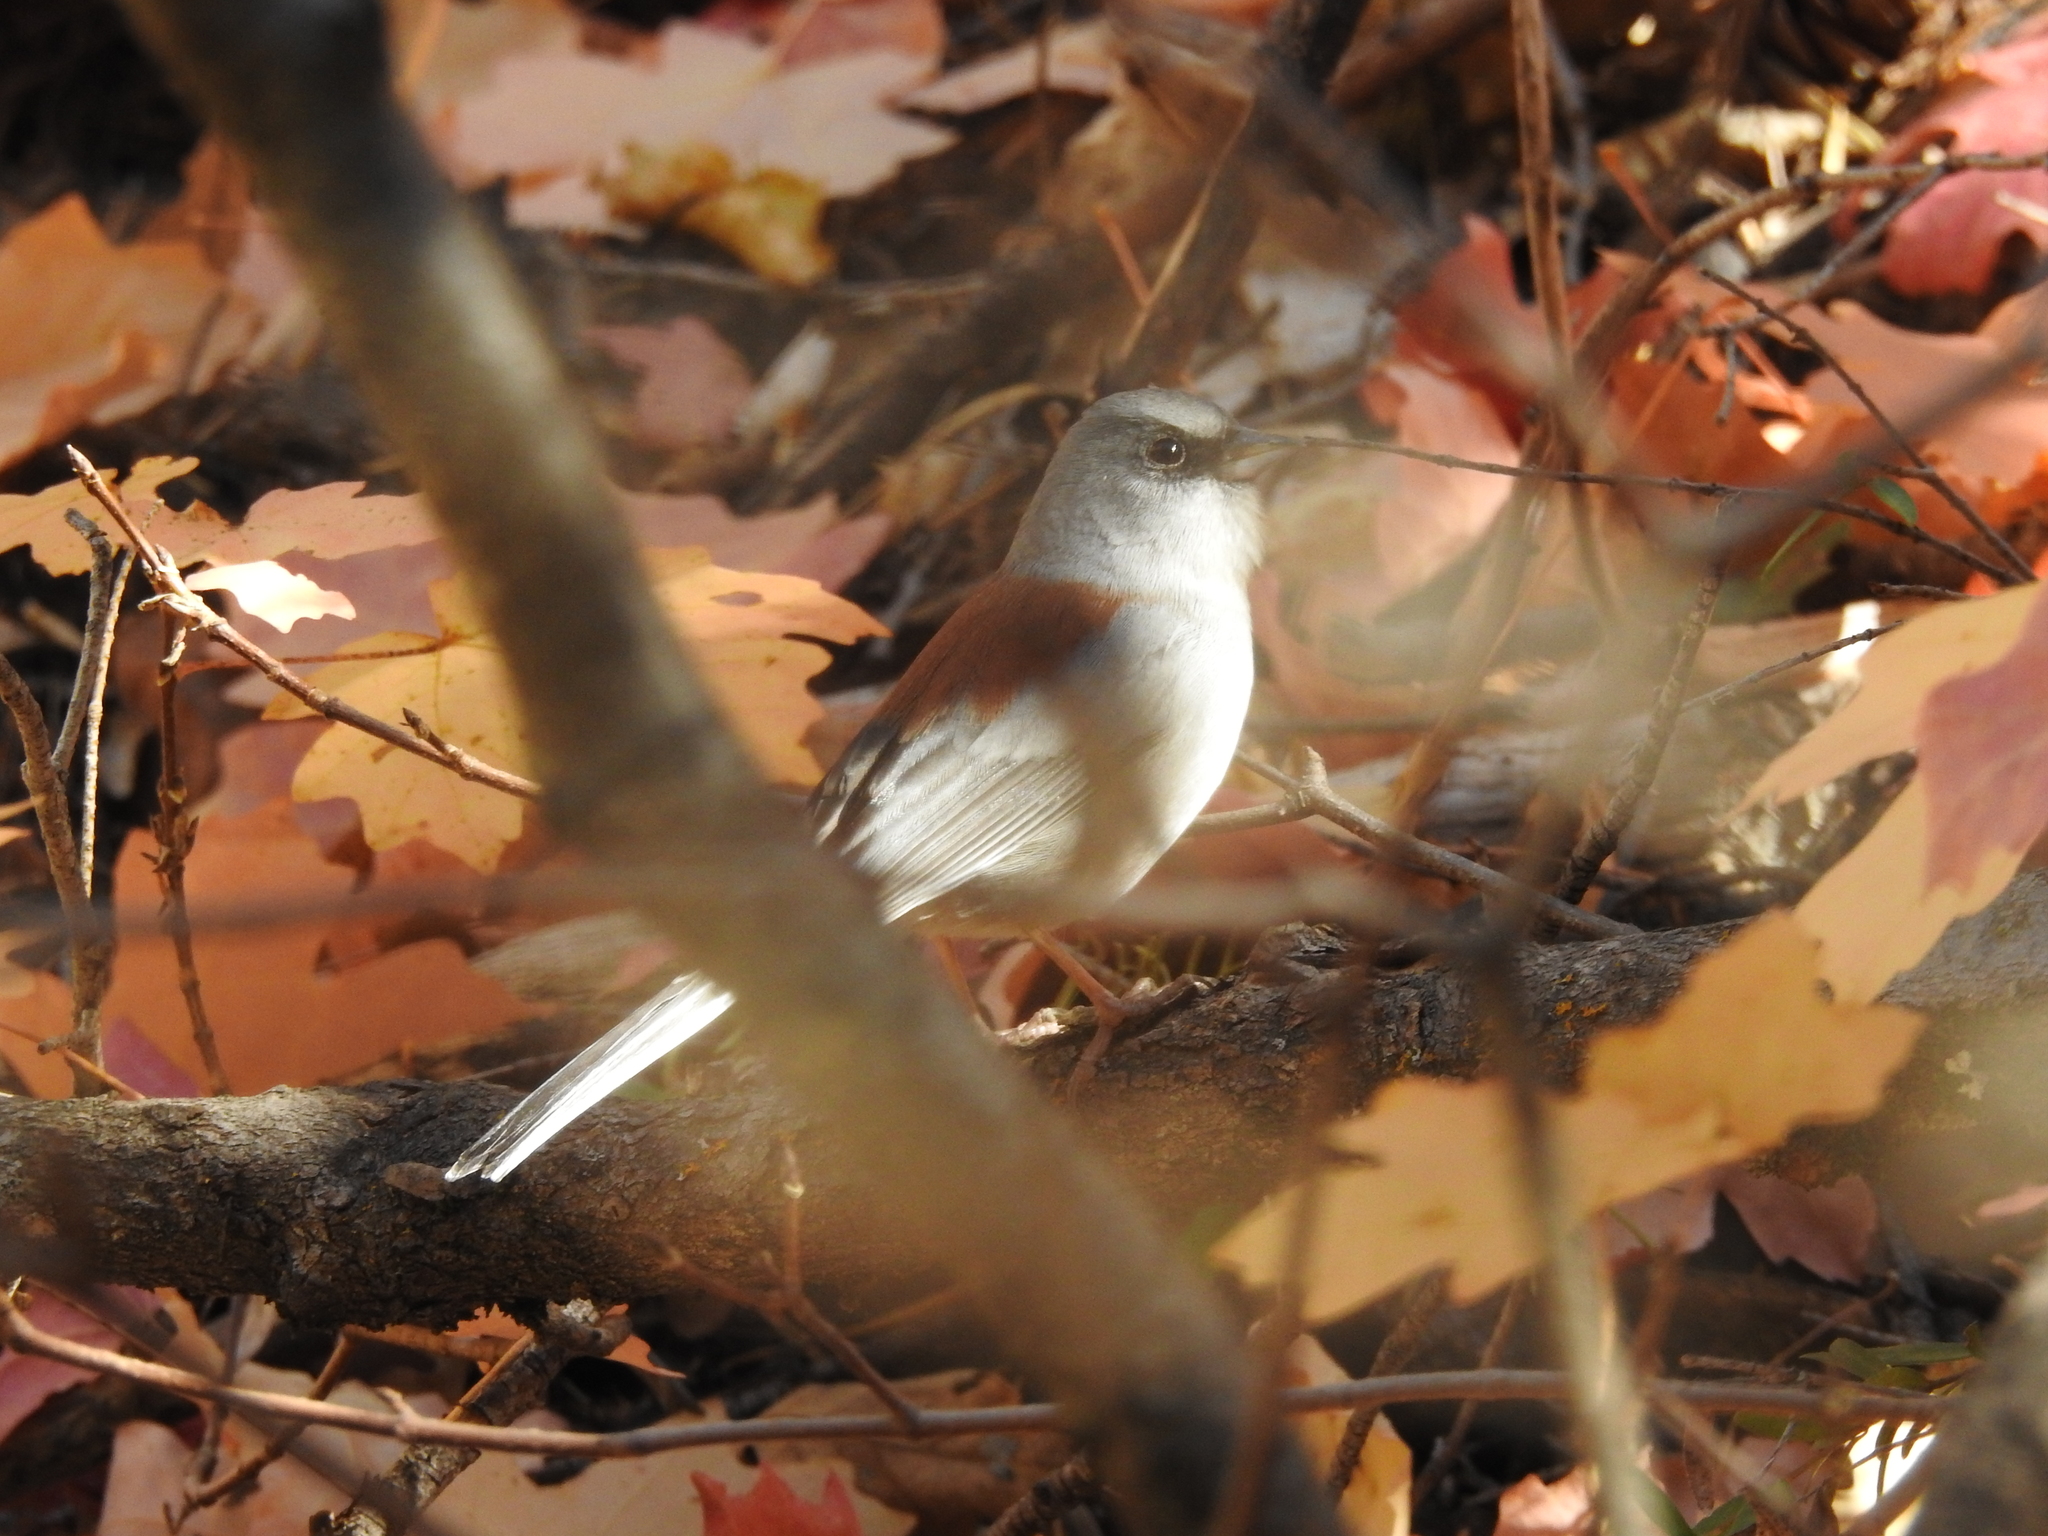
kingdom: Animalia
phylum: Chordata
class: Aves
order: Passeriformes
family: Passerellidae
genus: Junco
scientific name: Junco hyemalis
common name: Dark-eyed junco
